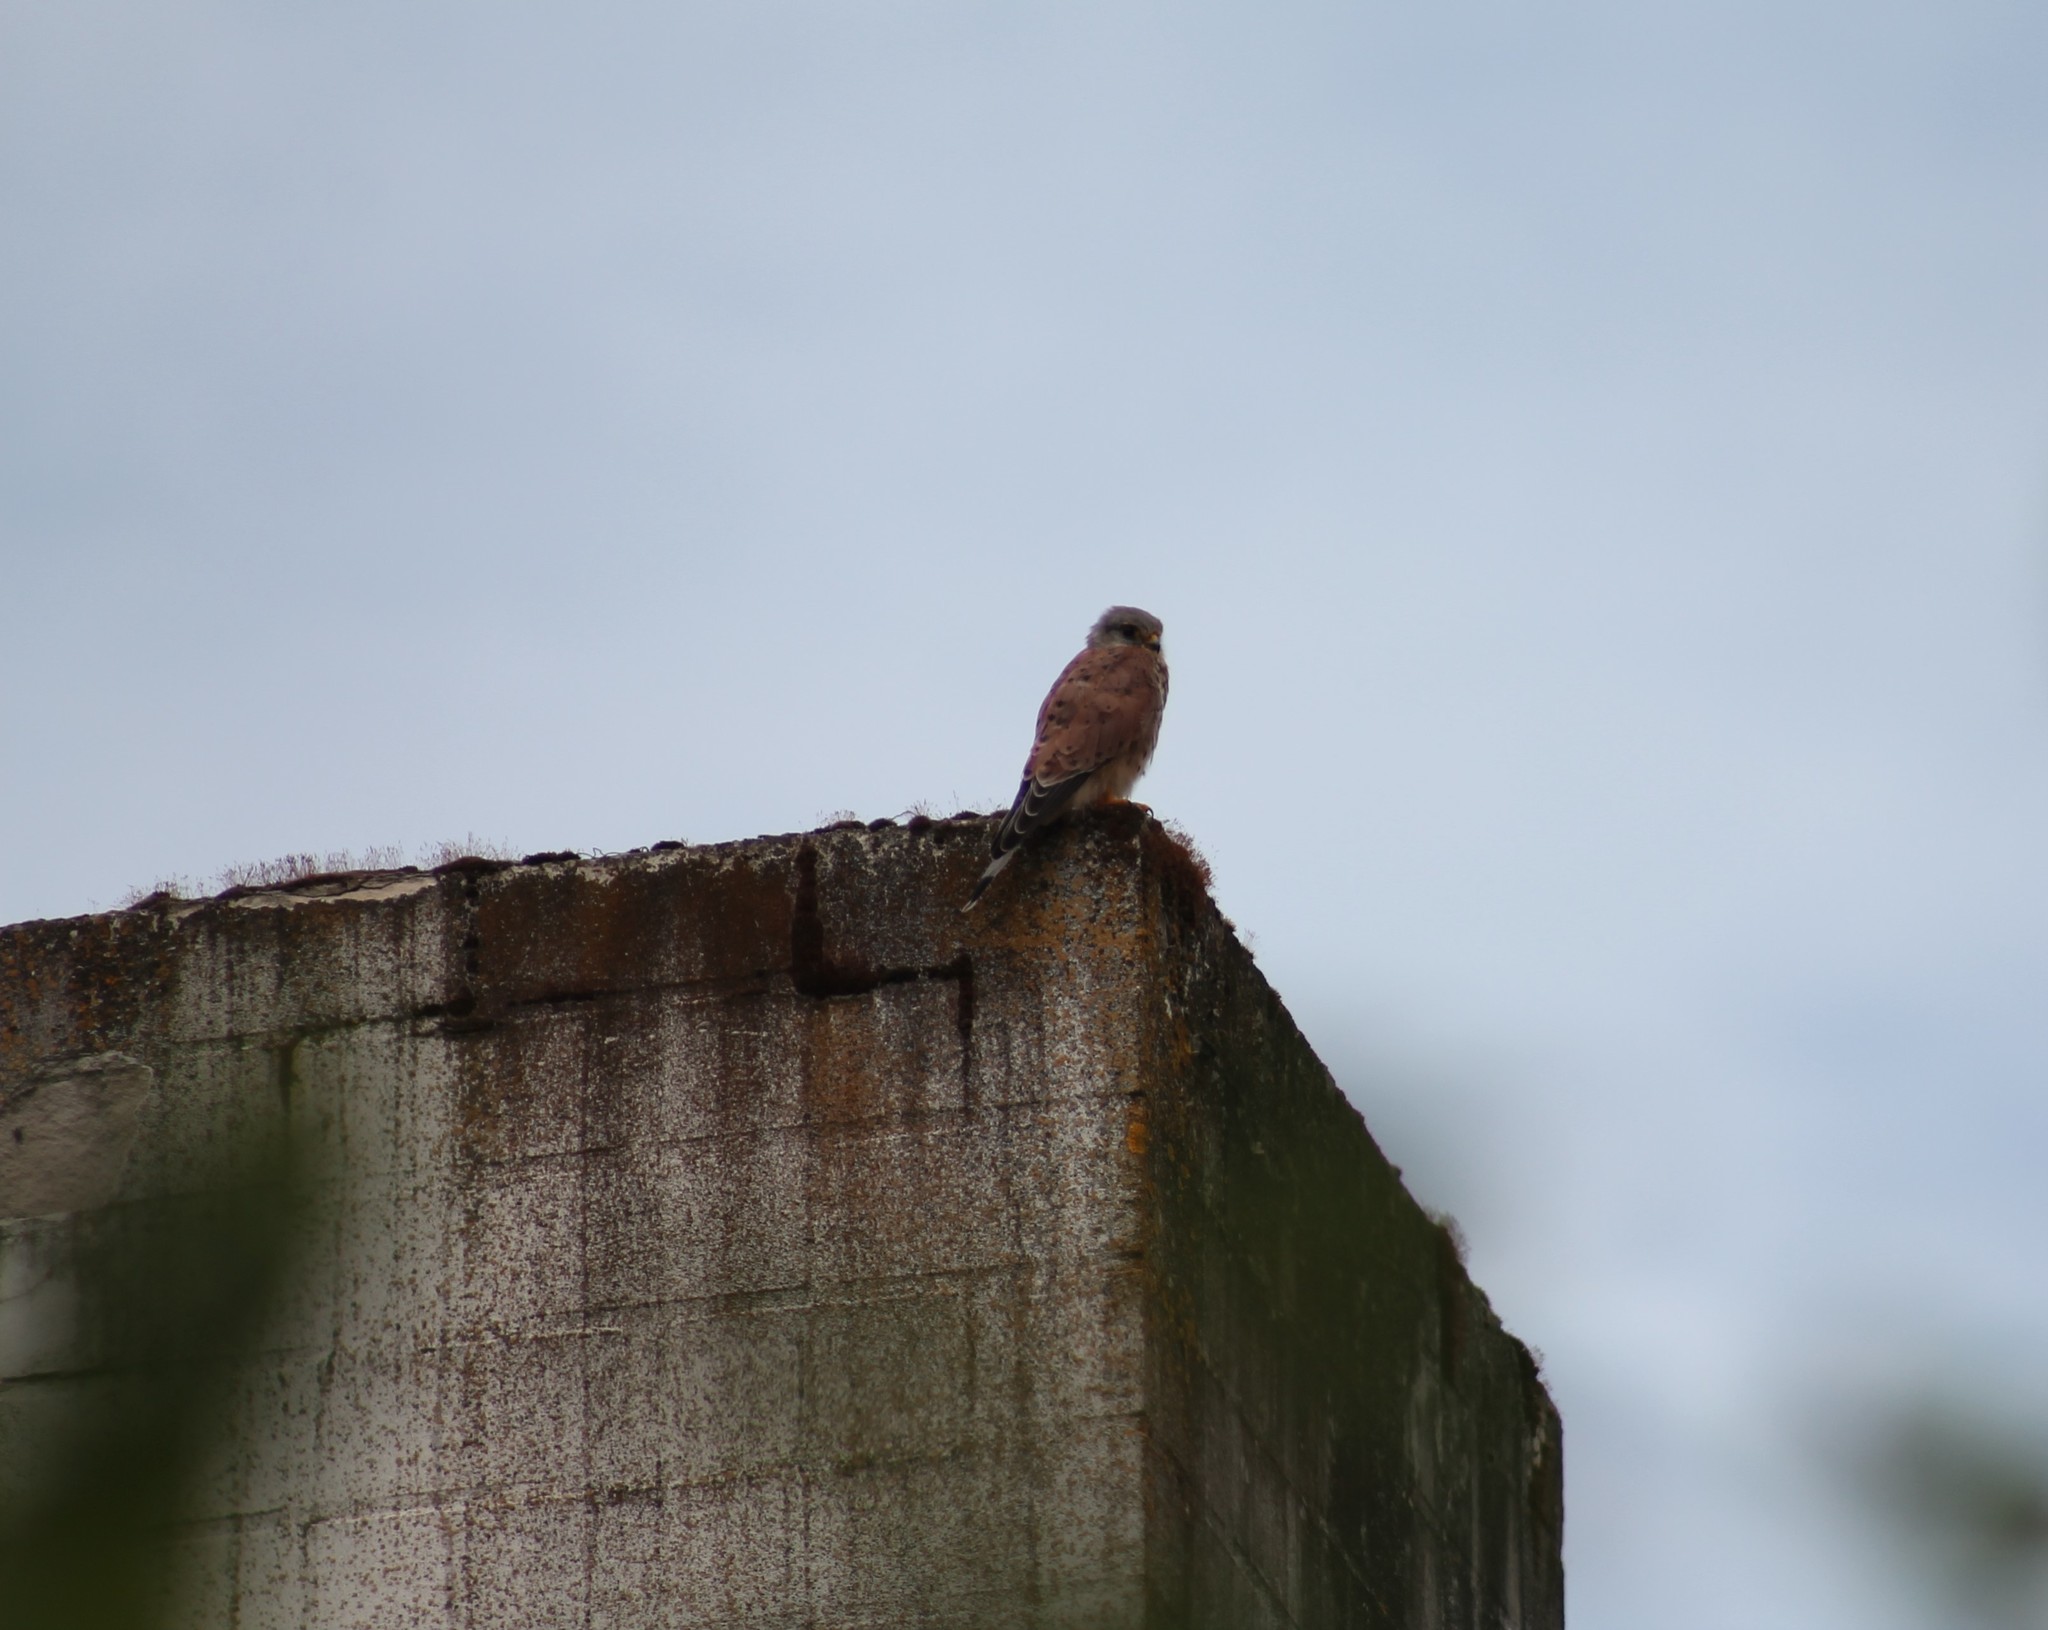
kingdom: Animalia
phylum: Chordata
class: Aves
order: Falconiformes
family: Falconidae
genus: Falco
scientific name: Falco tinnunculus
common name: Common kestrel
